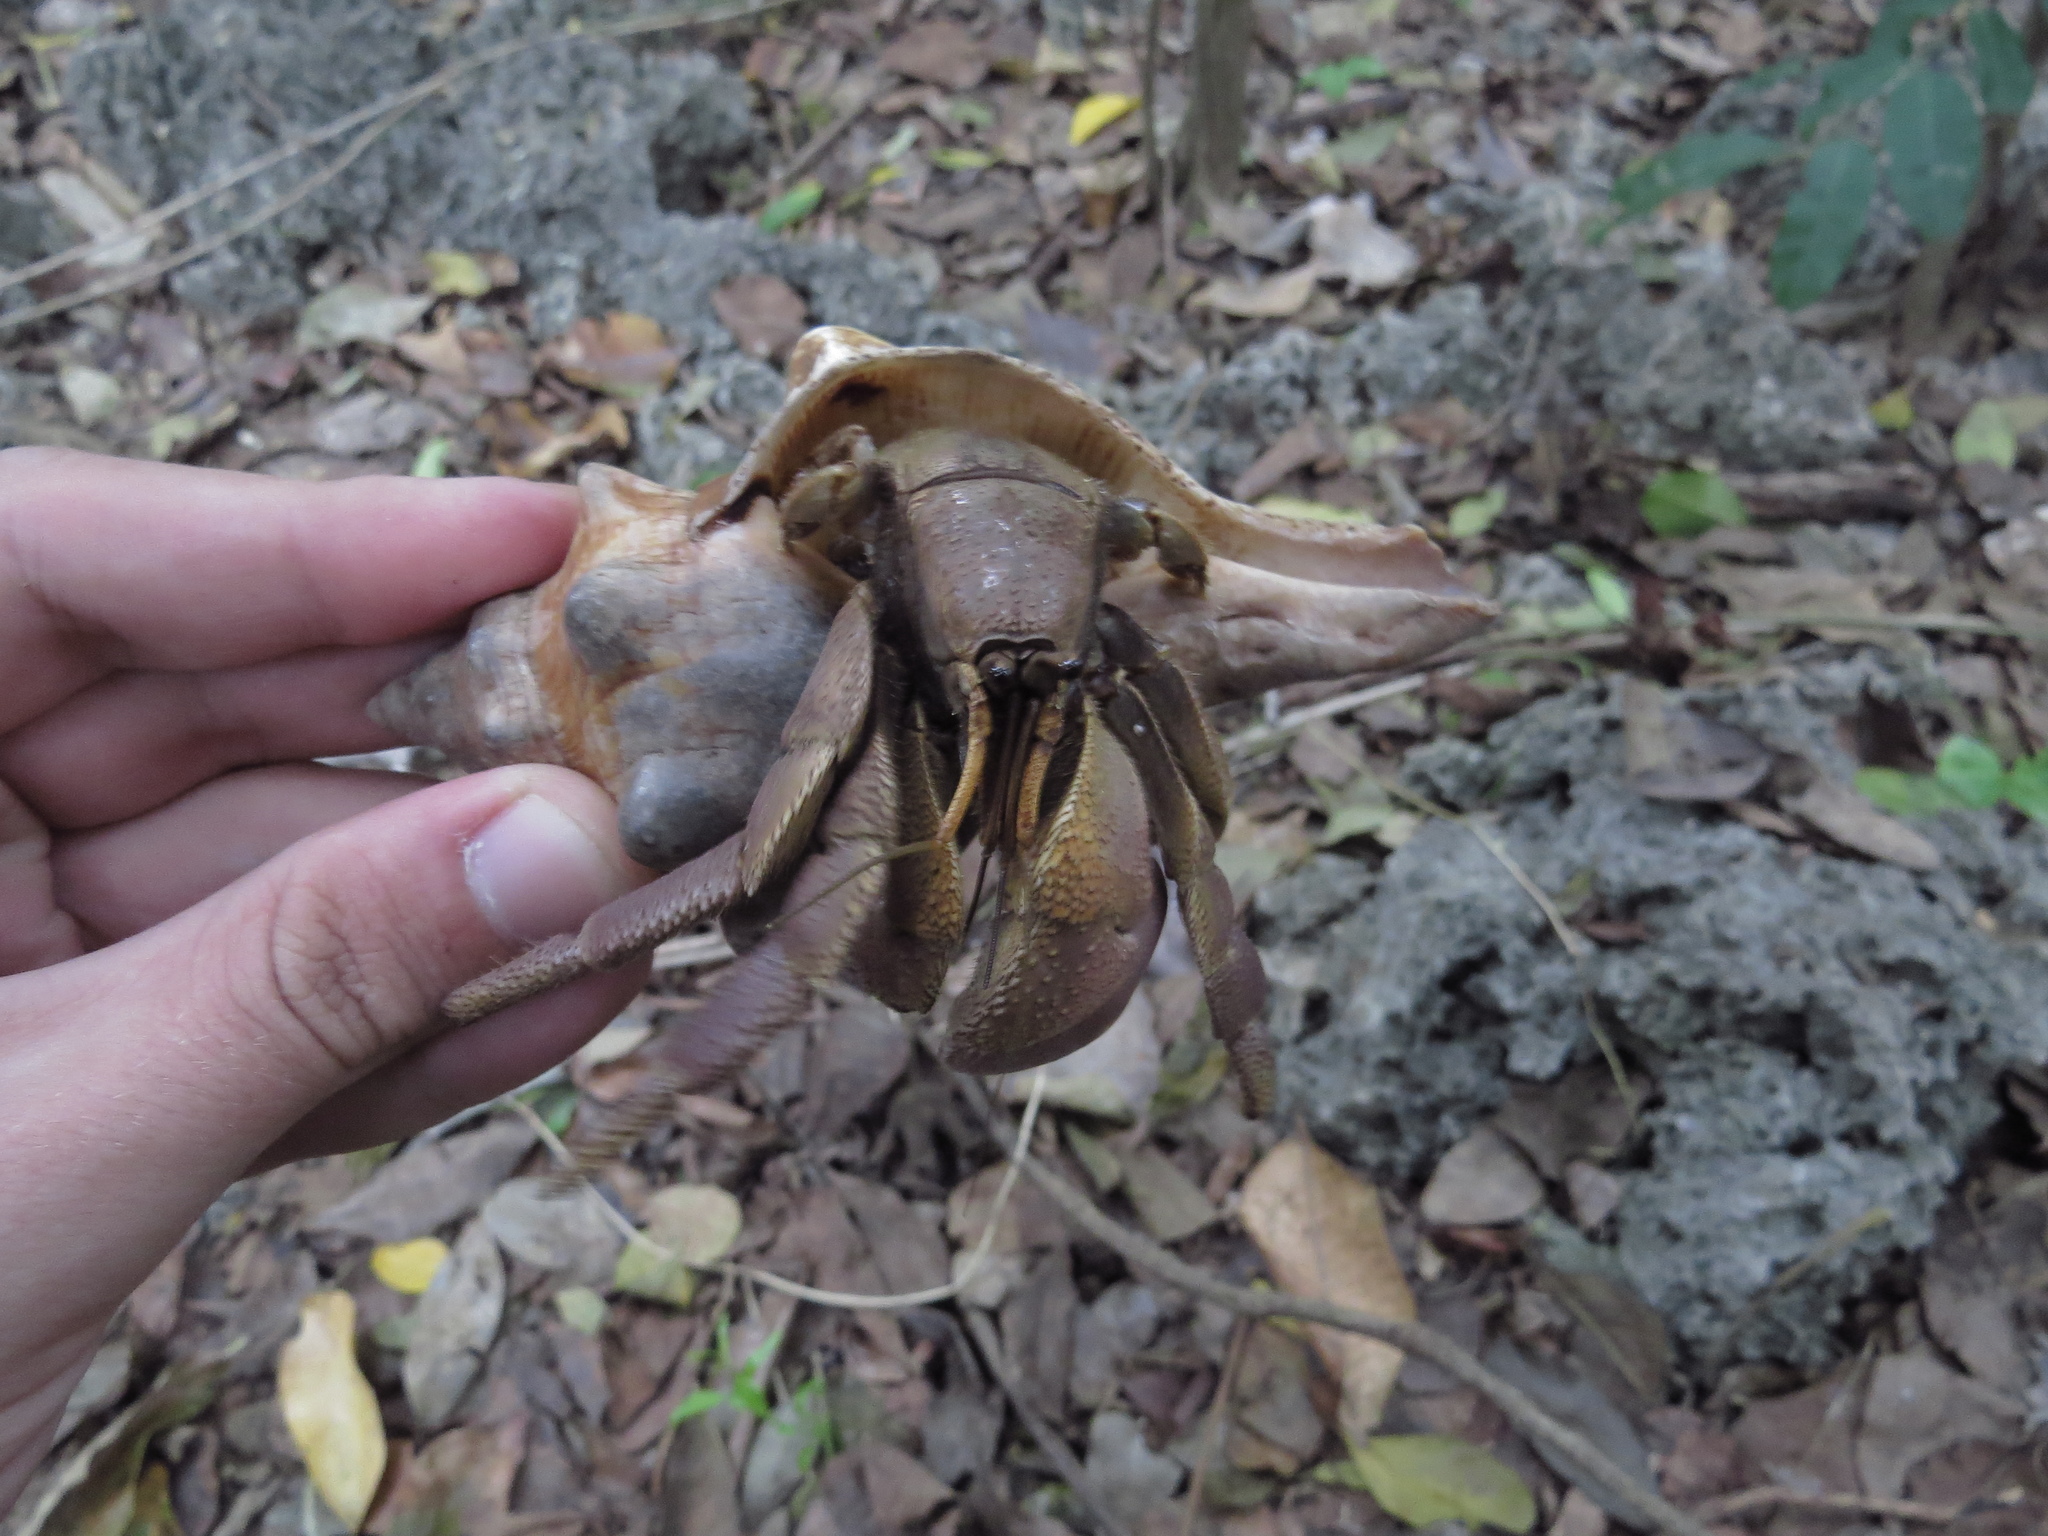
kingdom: Animalia
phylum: Arthropoda
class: Malacostraca
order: Decapoda
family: Coenobitidae
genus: Coenobita
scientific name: Coenobita brevimanus
